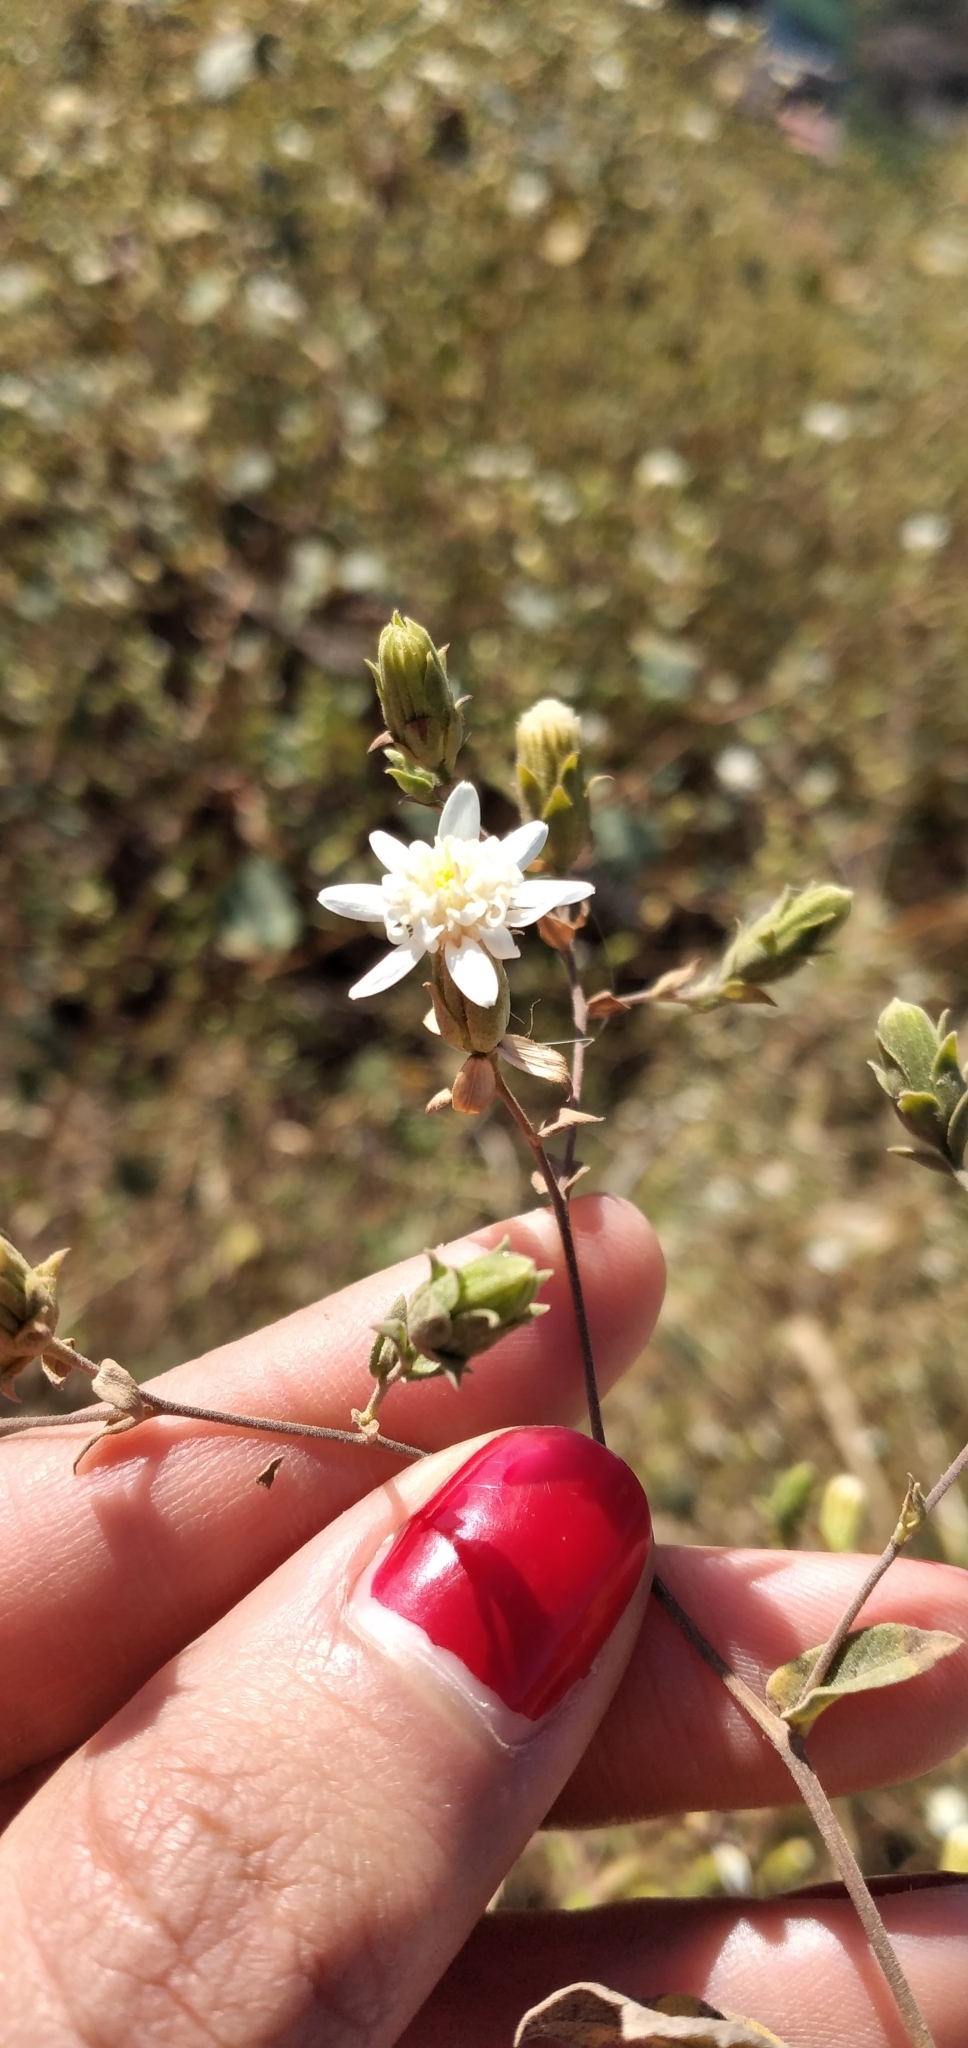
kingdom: Plantae
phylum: Tracheophyta
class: Magnoliopsida
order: Asterales
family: Asteraceae
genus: Jungia
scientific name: Jungia polita
